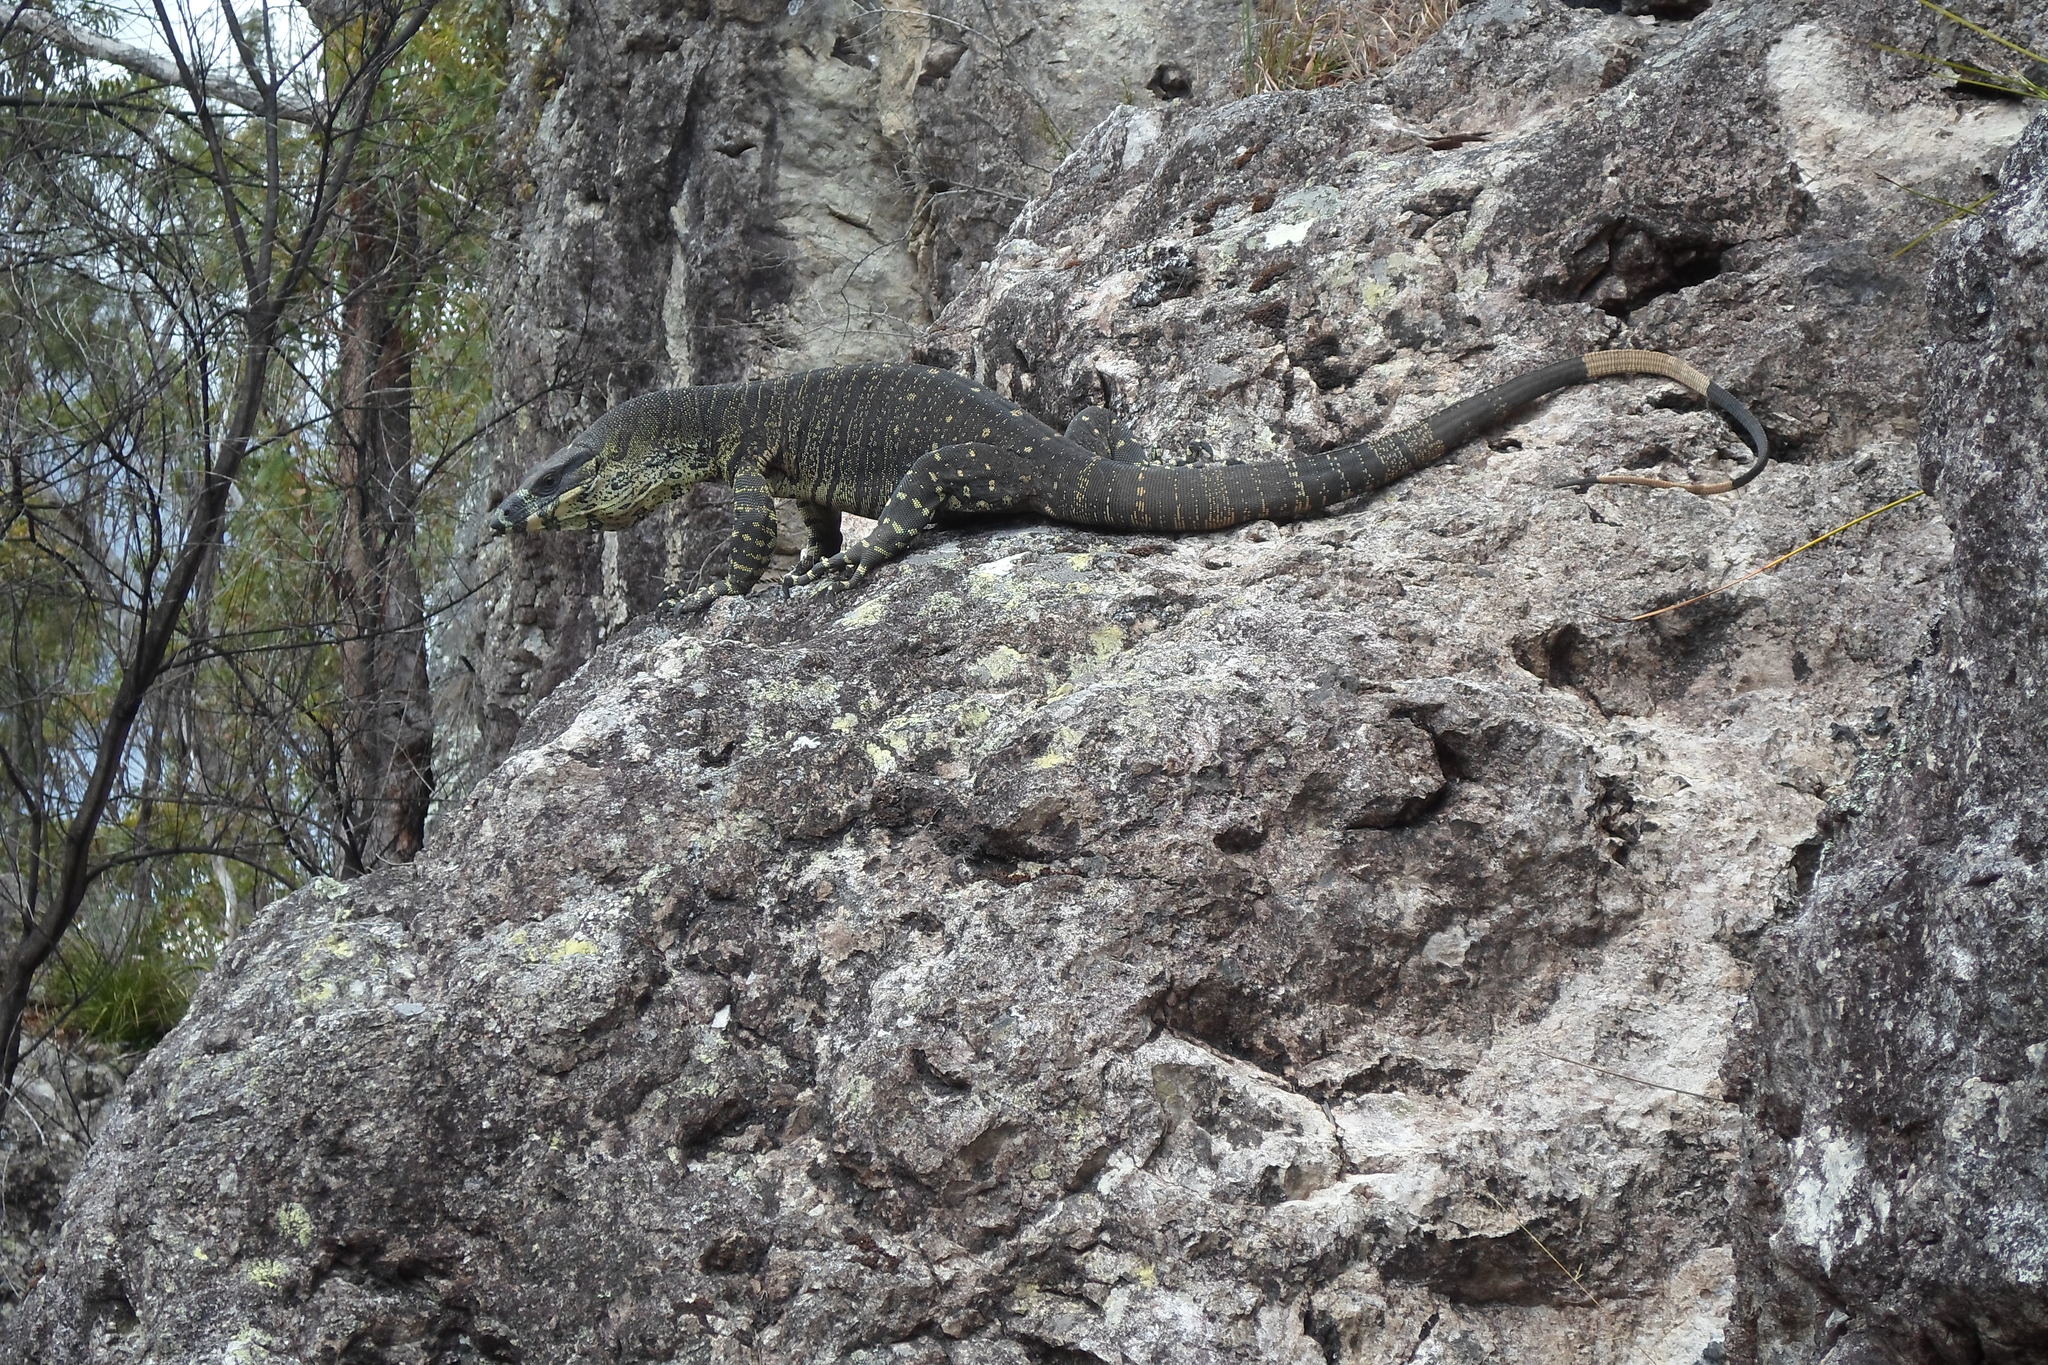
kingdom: Animalia
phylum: Chordata
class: Squamata
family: Varanidae
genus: Varanus
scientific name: Varanus varius
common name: Lace monitor
